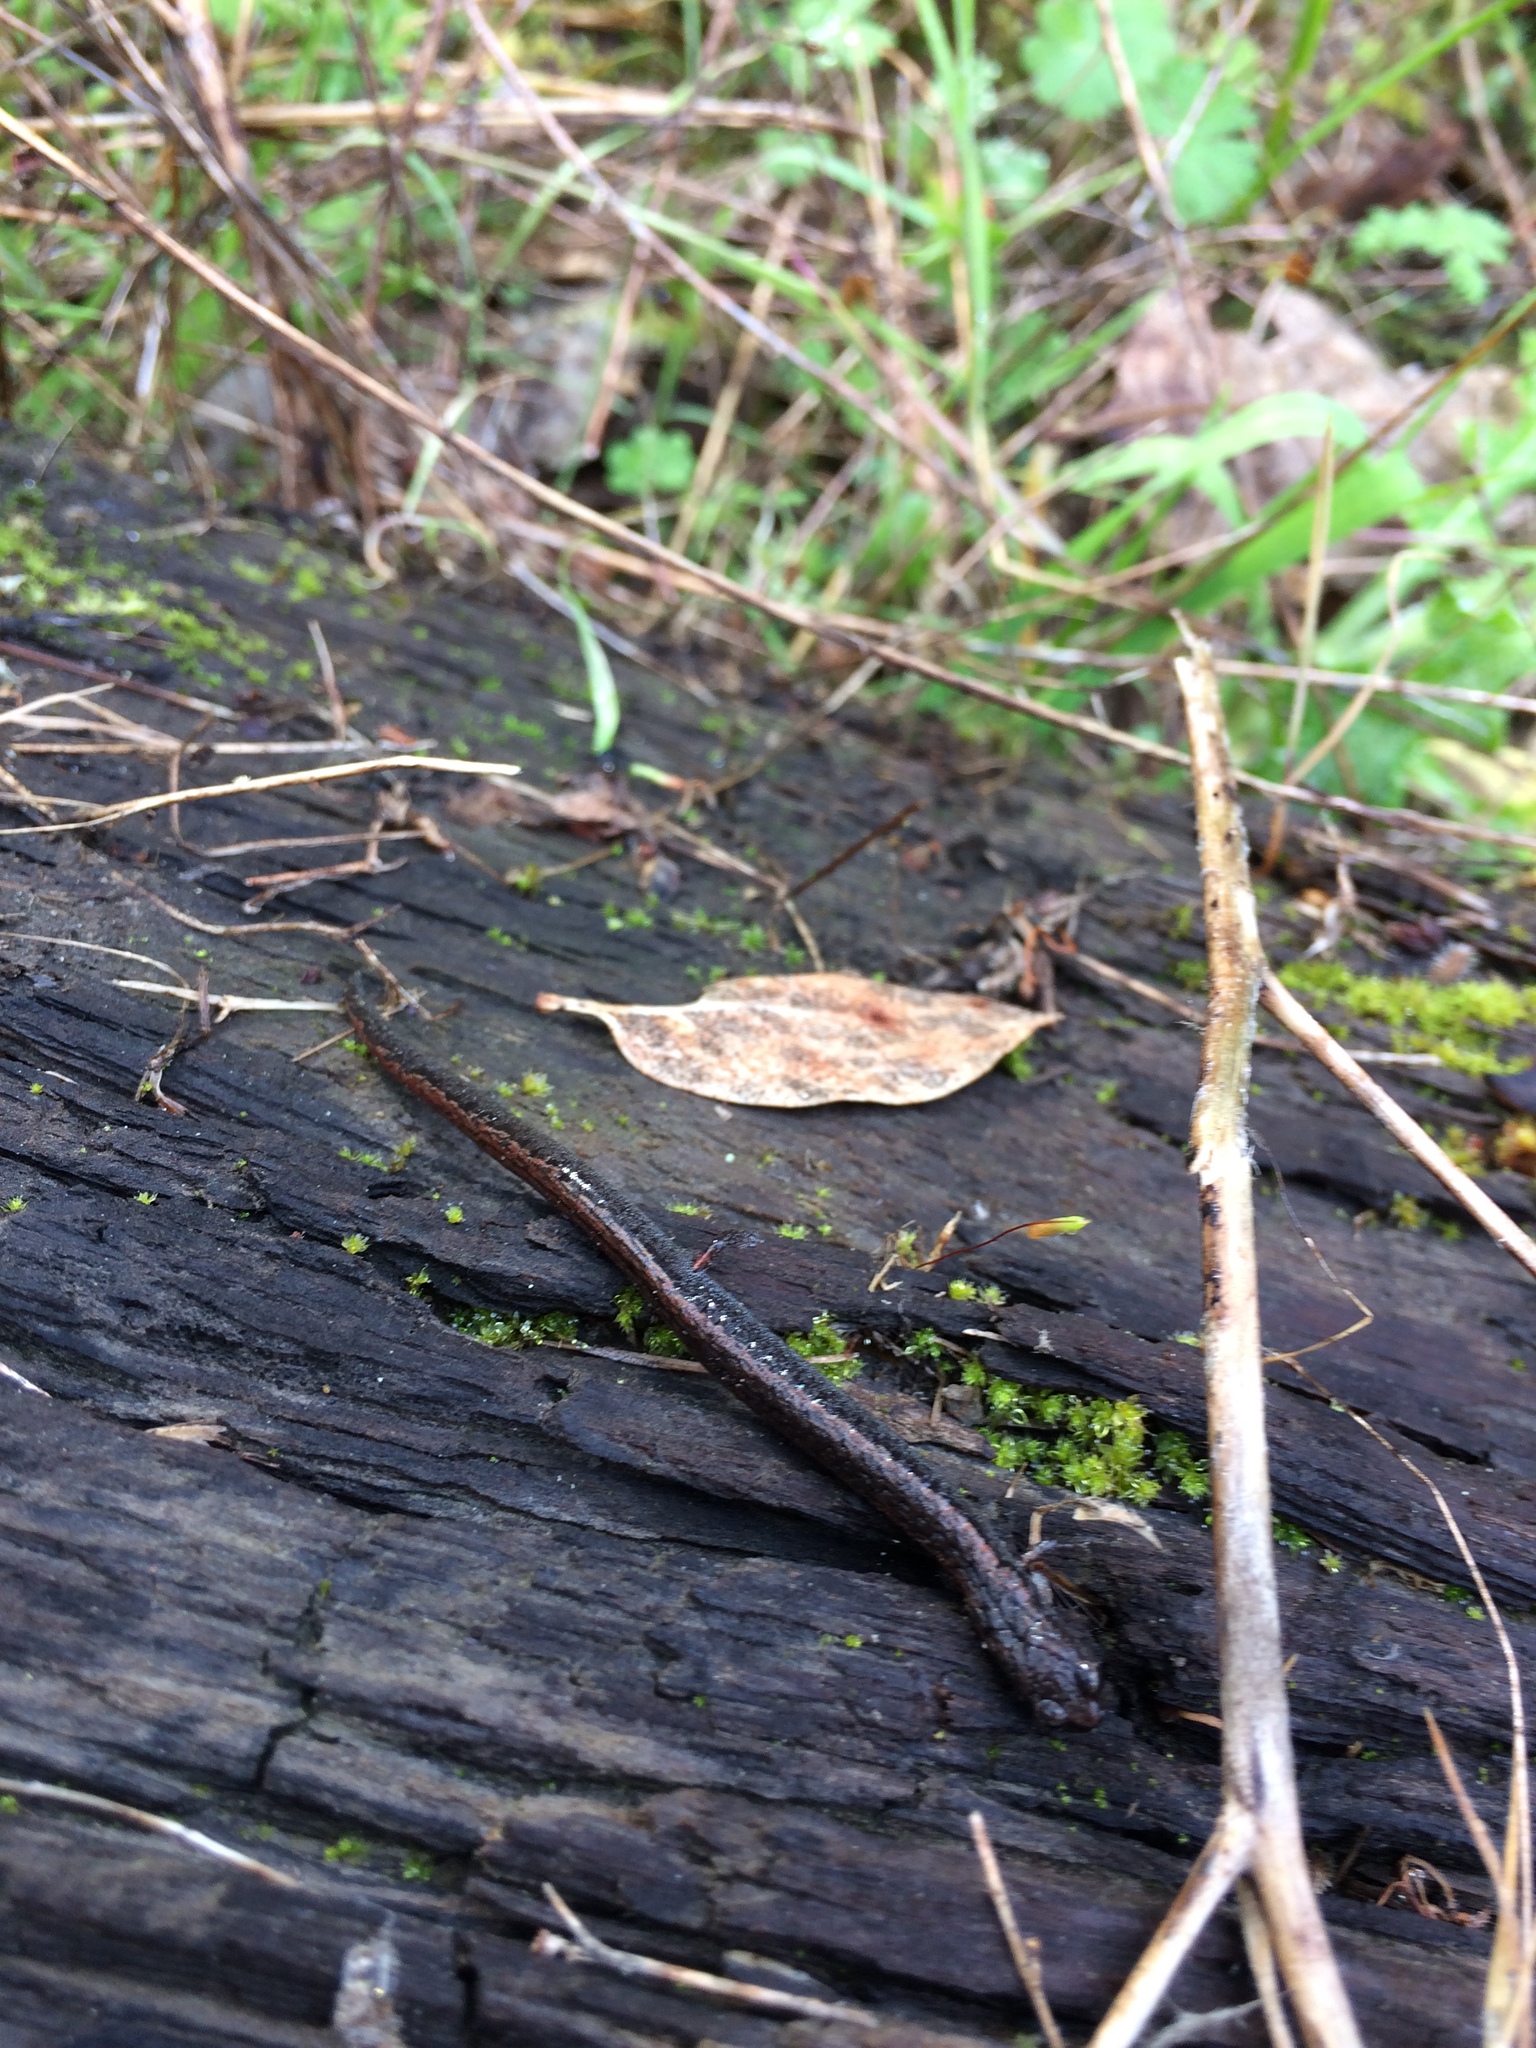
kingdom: Animalia
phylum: Chordata
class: Amphibia
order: Caudata
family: Plethodontidae
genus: Batrachoseps
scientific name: Batrachoseps attenuatus
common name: California slender salamander
